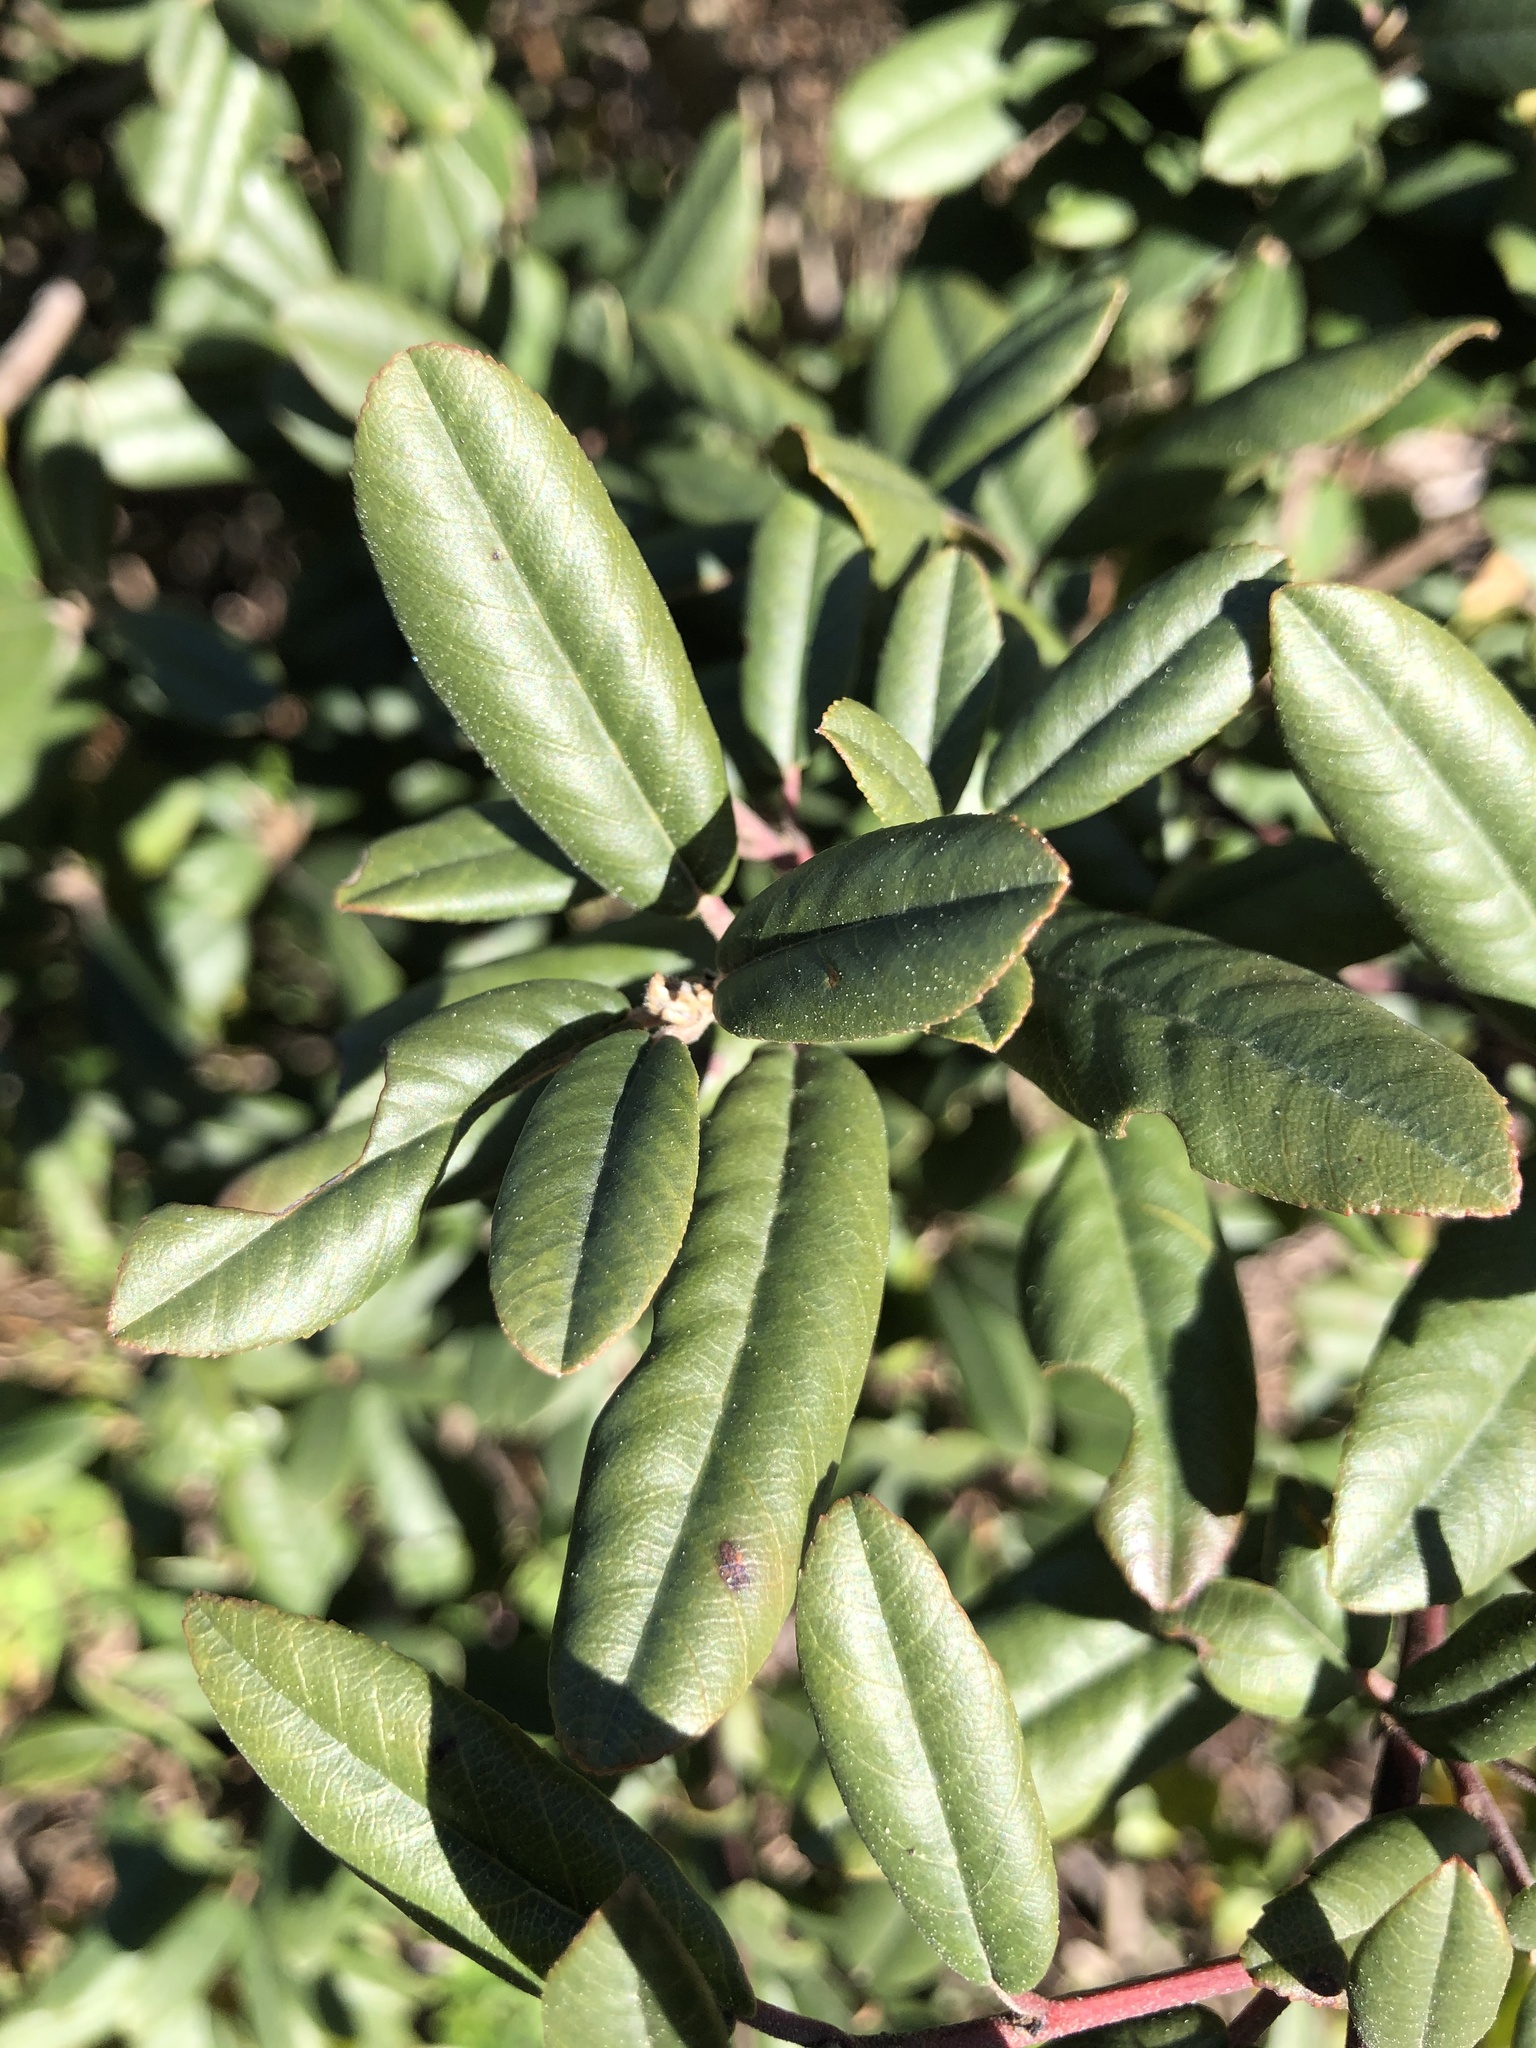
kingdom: Plantae
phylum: Tracheophyta
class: Magnoliopsida
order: Rosales
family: Rhamnaceae
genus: Frangula
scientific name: Frangula californica
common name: California buckthorn
